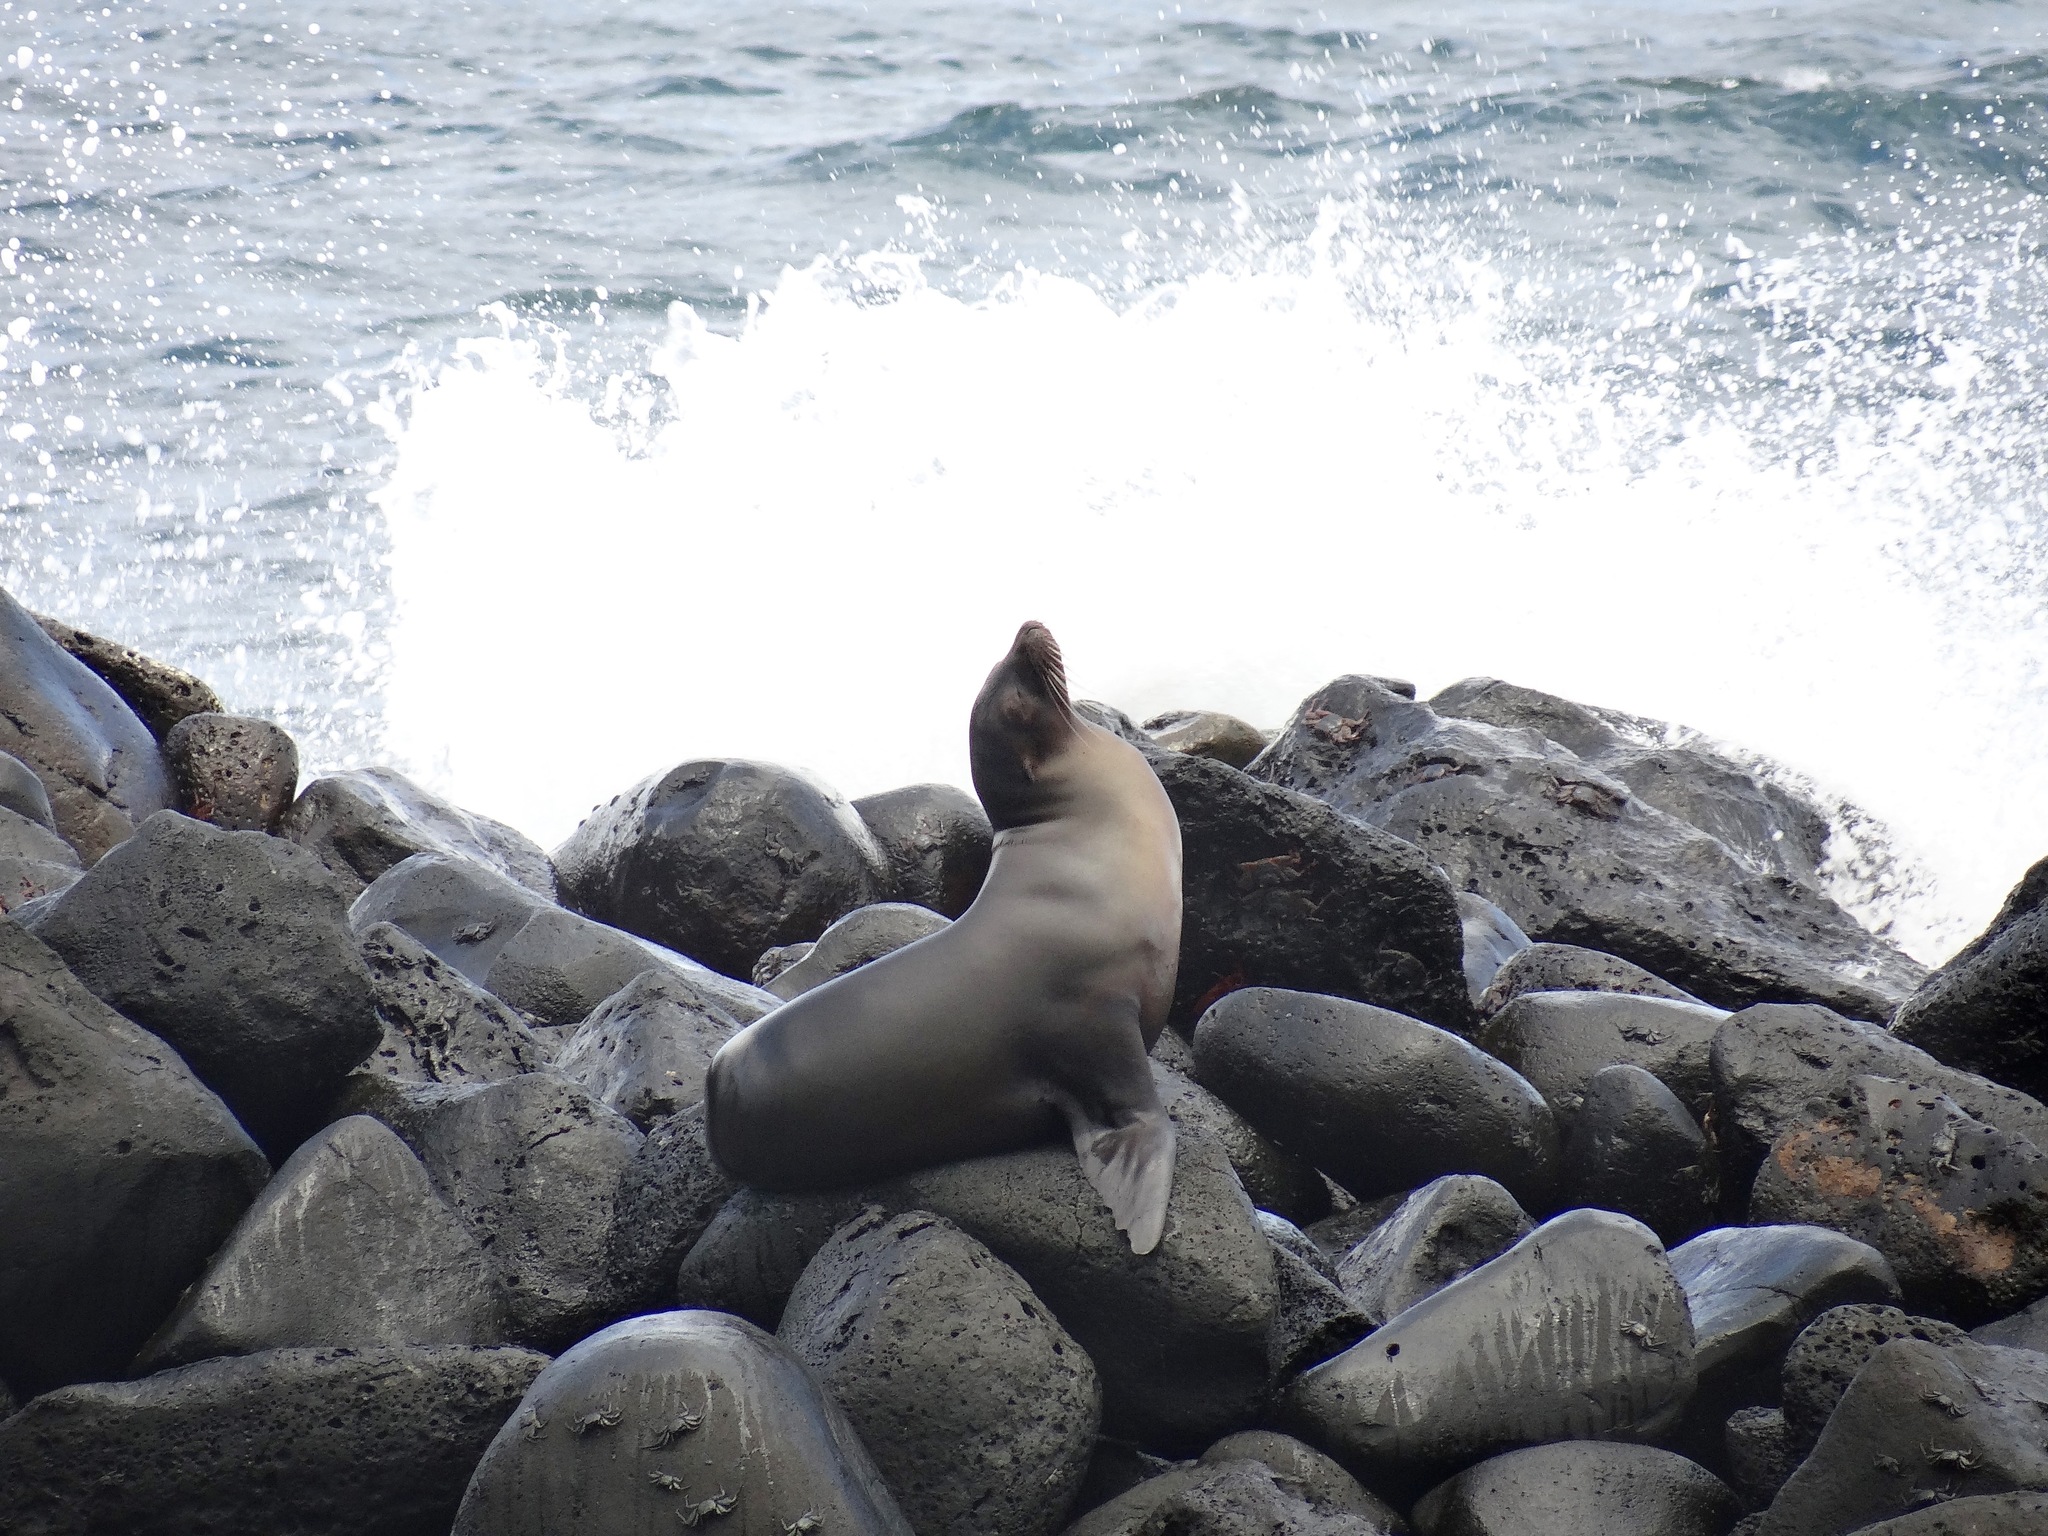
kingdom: Animalia
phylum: Chordata
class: Mammalia
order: Carnivora
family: Otariidae
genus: Zalophus
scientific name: Zalophus wollebaeki
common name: Galapagos sea lion
